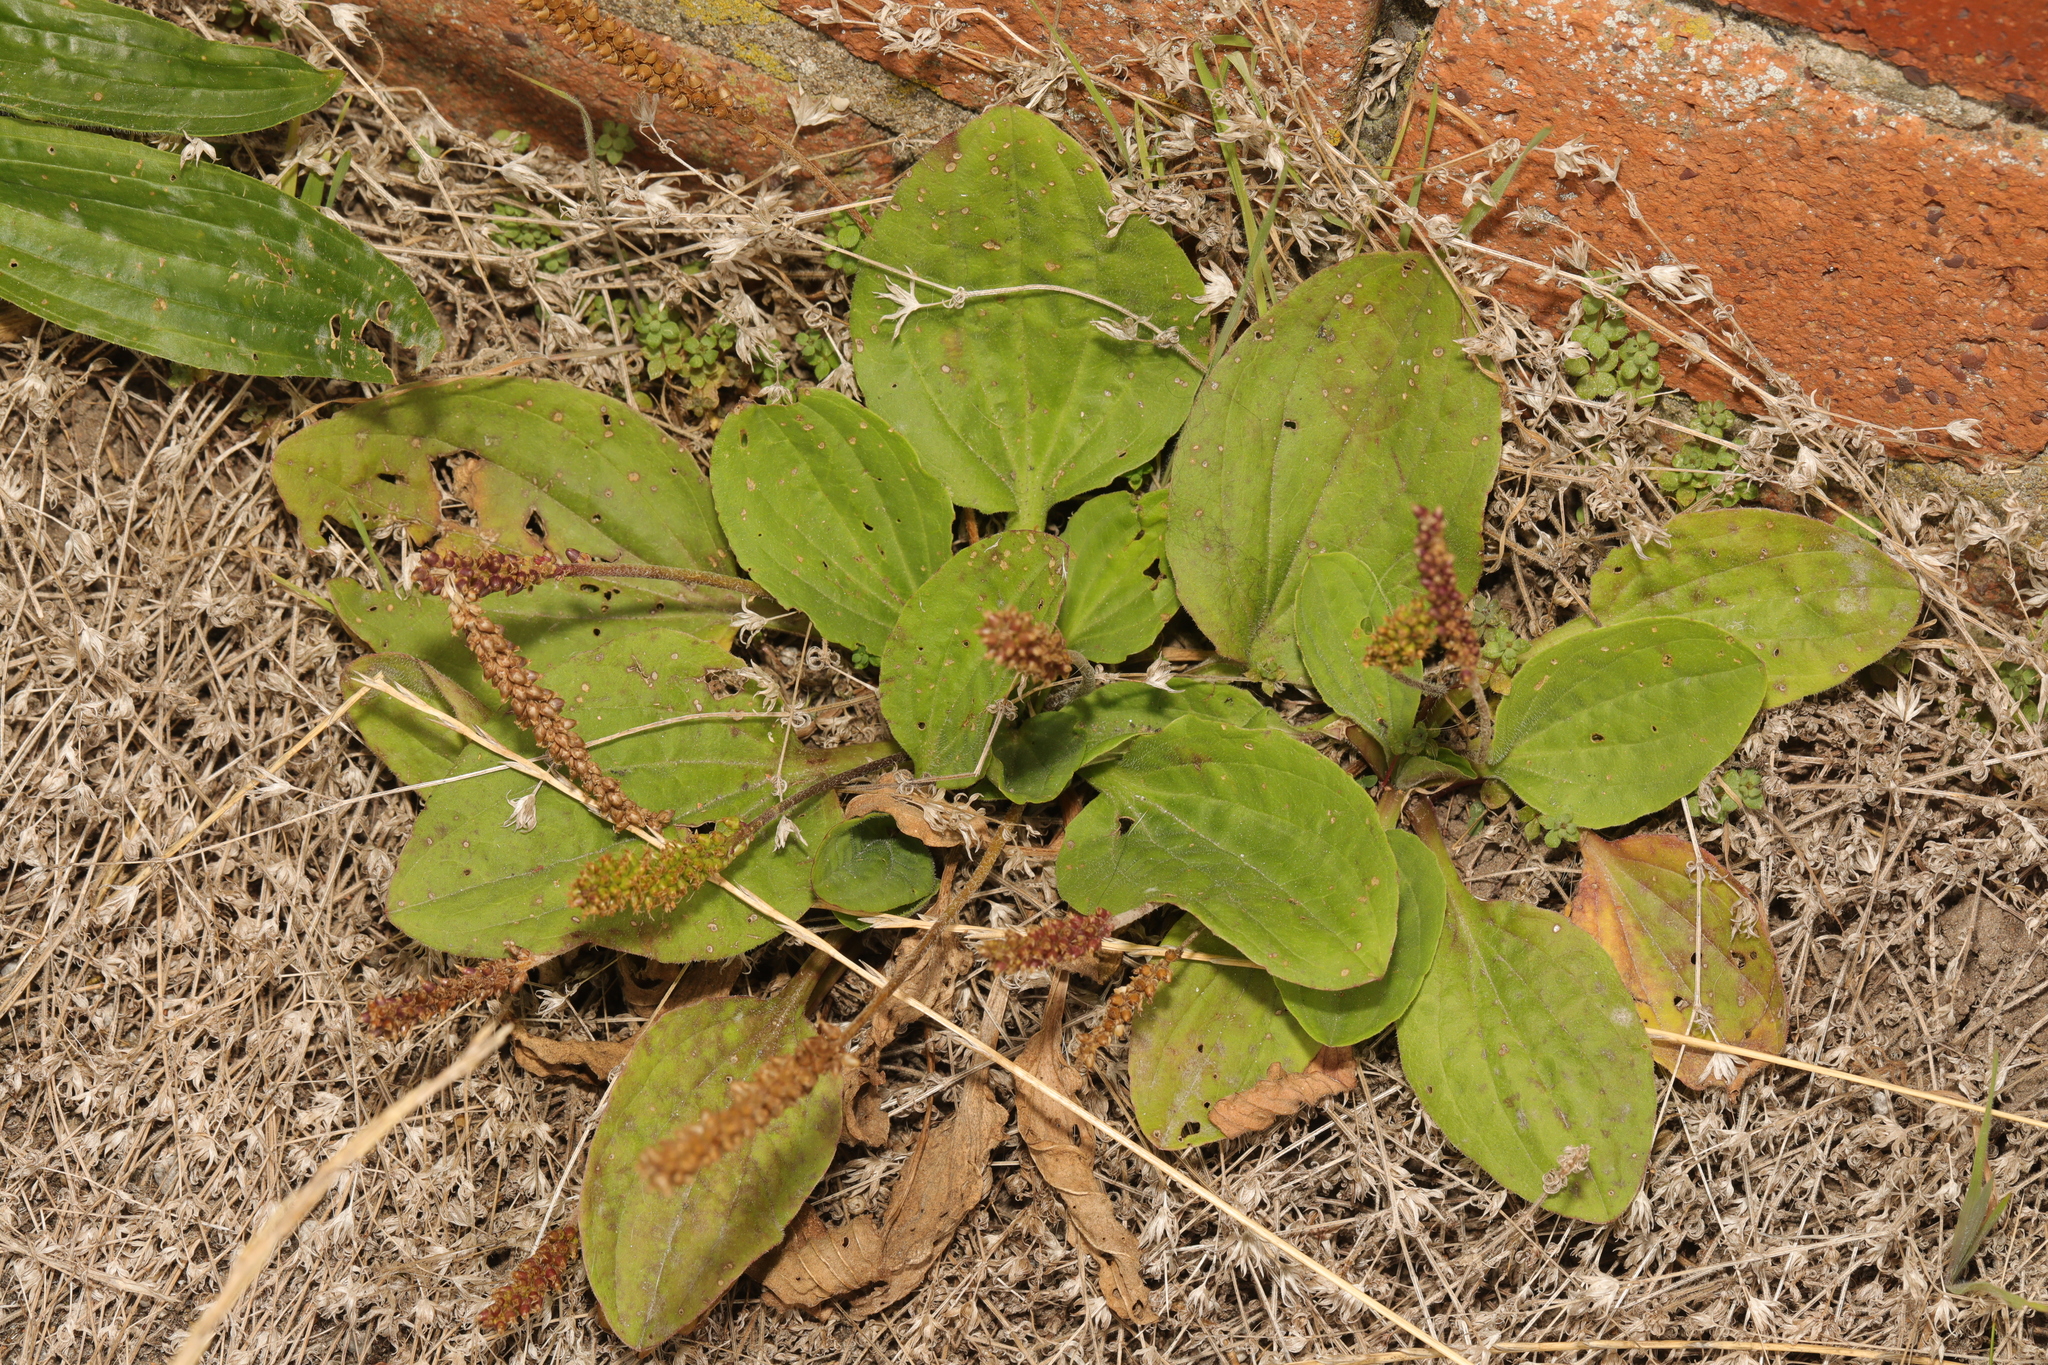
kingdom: Plantae
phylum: Tracheophyta
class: Magnoliopsida
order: Lamiales
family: Plantaginaceae
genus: Plantago
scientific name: Plantago major
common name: Common plantain
